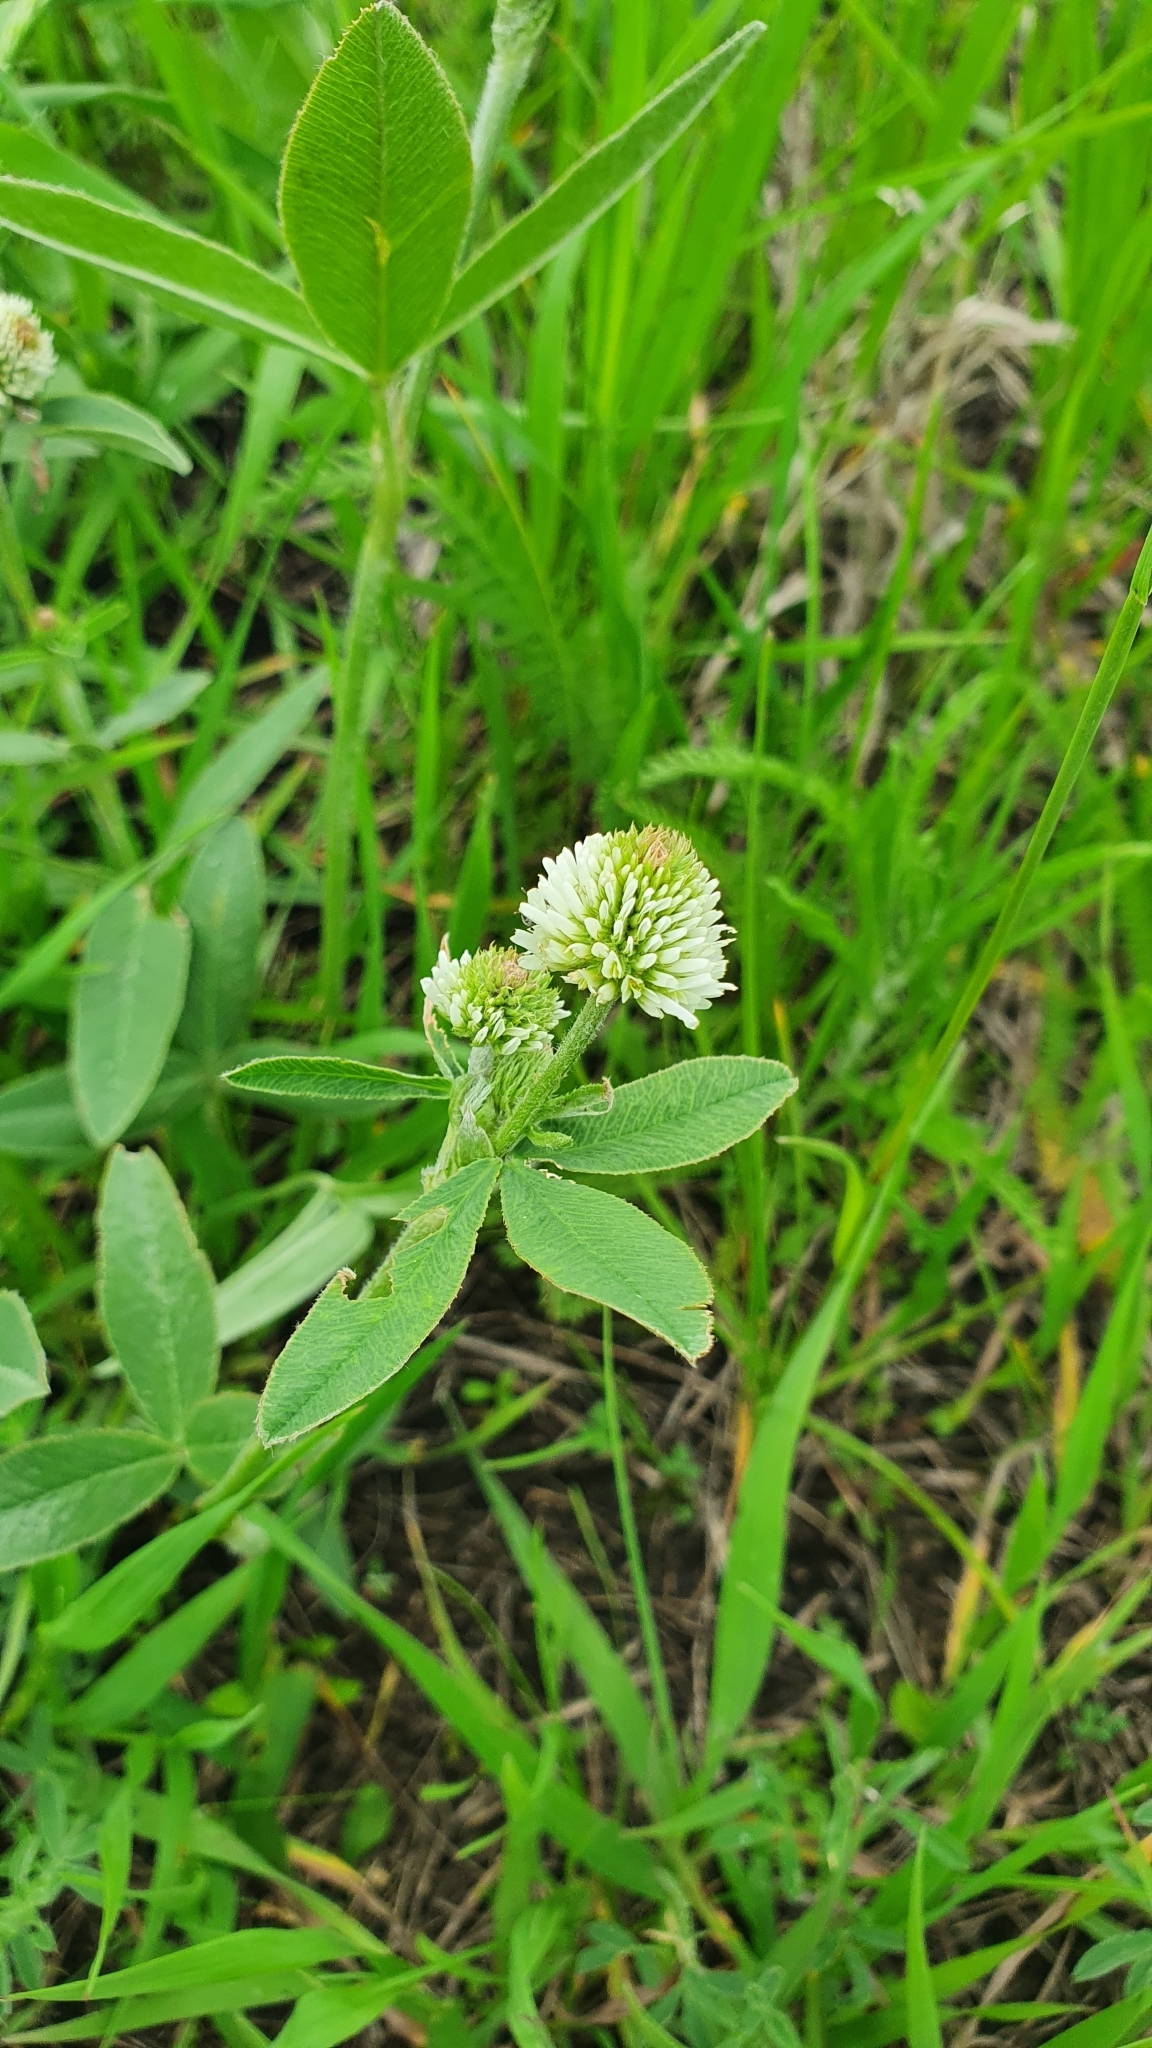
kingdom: Plantae
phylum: Tracheophyta
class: Magnoliopsida
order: Fabales
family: Fabaceae
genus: Trifolium
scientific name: Trifolium montanum
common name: Mountain clover
